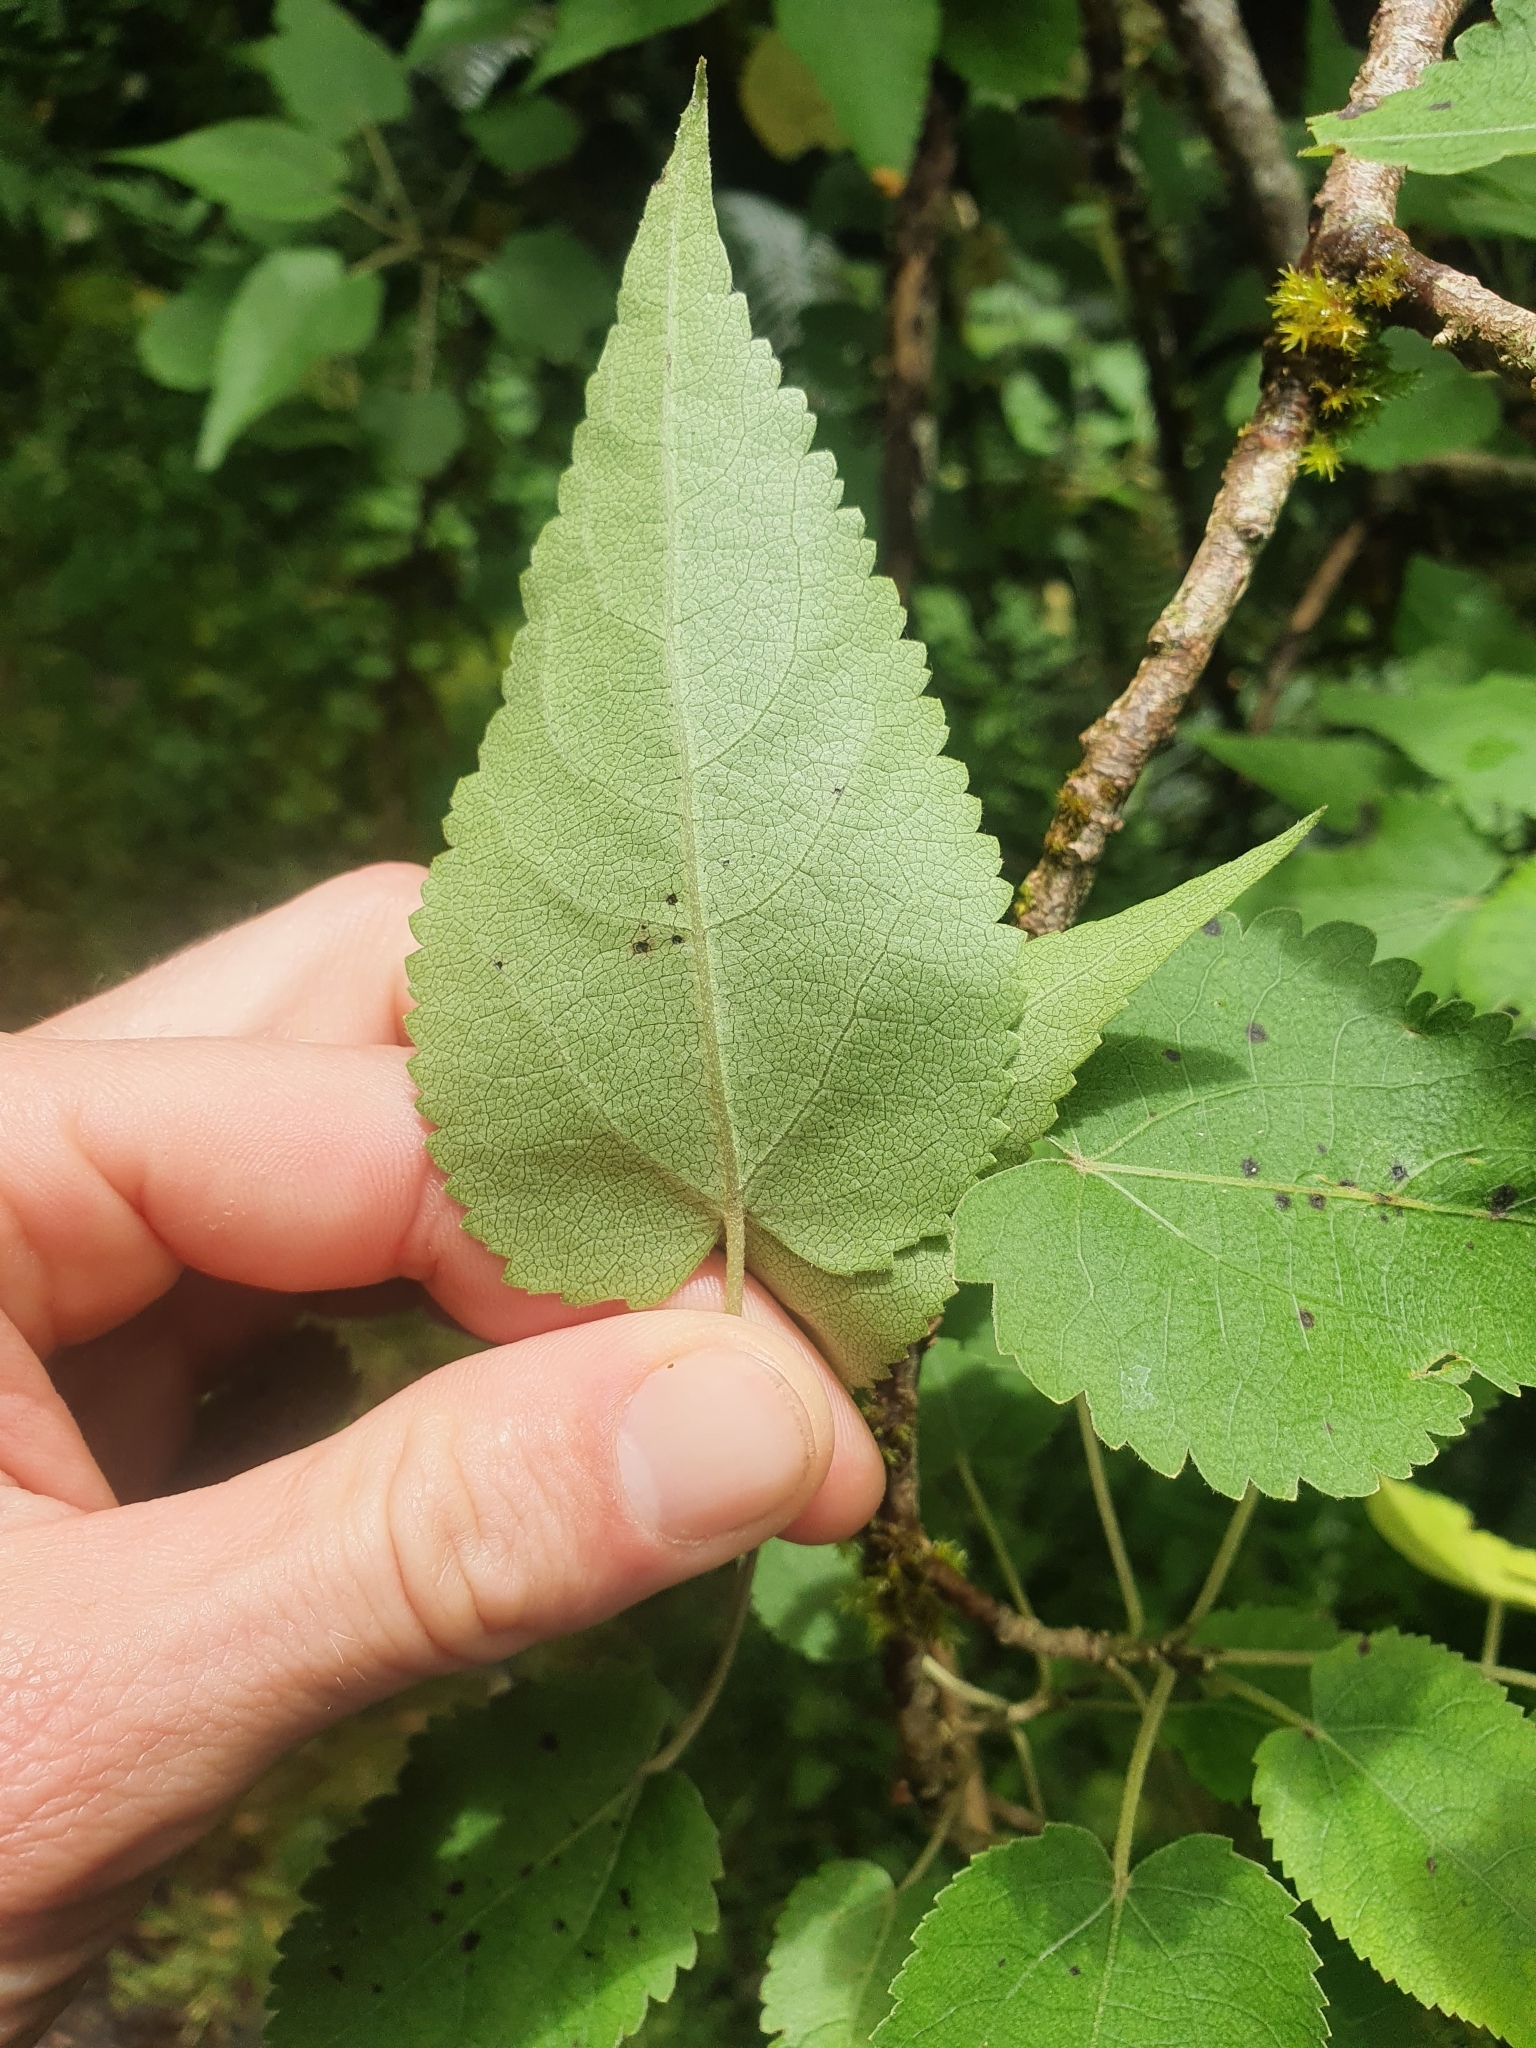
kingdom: Plantae
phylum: Tracheophyta
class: Magnoliopsida
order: Malvales
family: Malvaceae
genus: Hoheria
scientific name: Hoheria glabrata
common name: Mountain-ribbon
